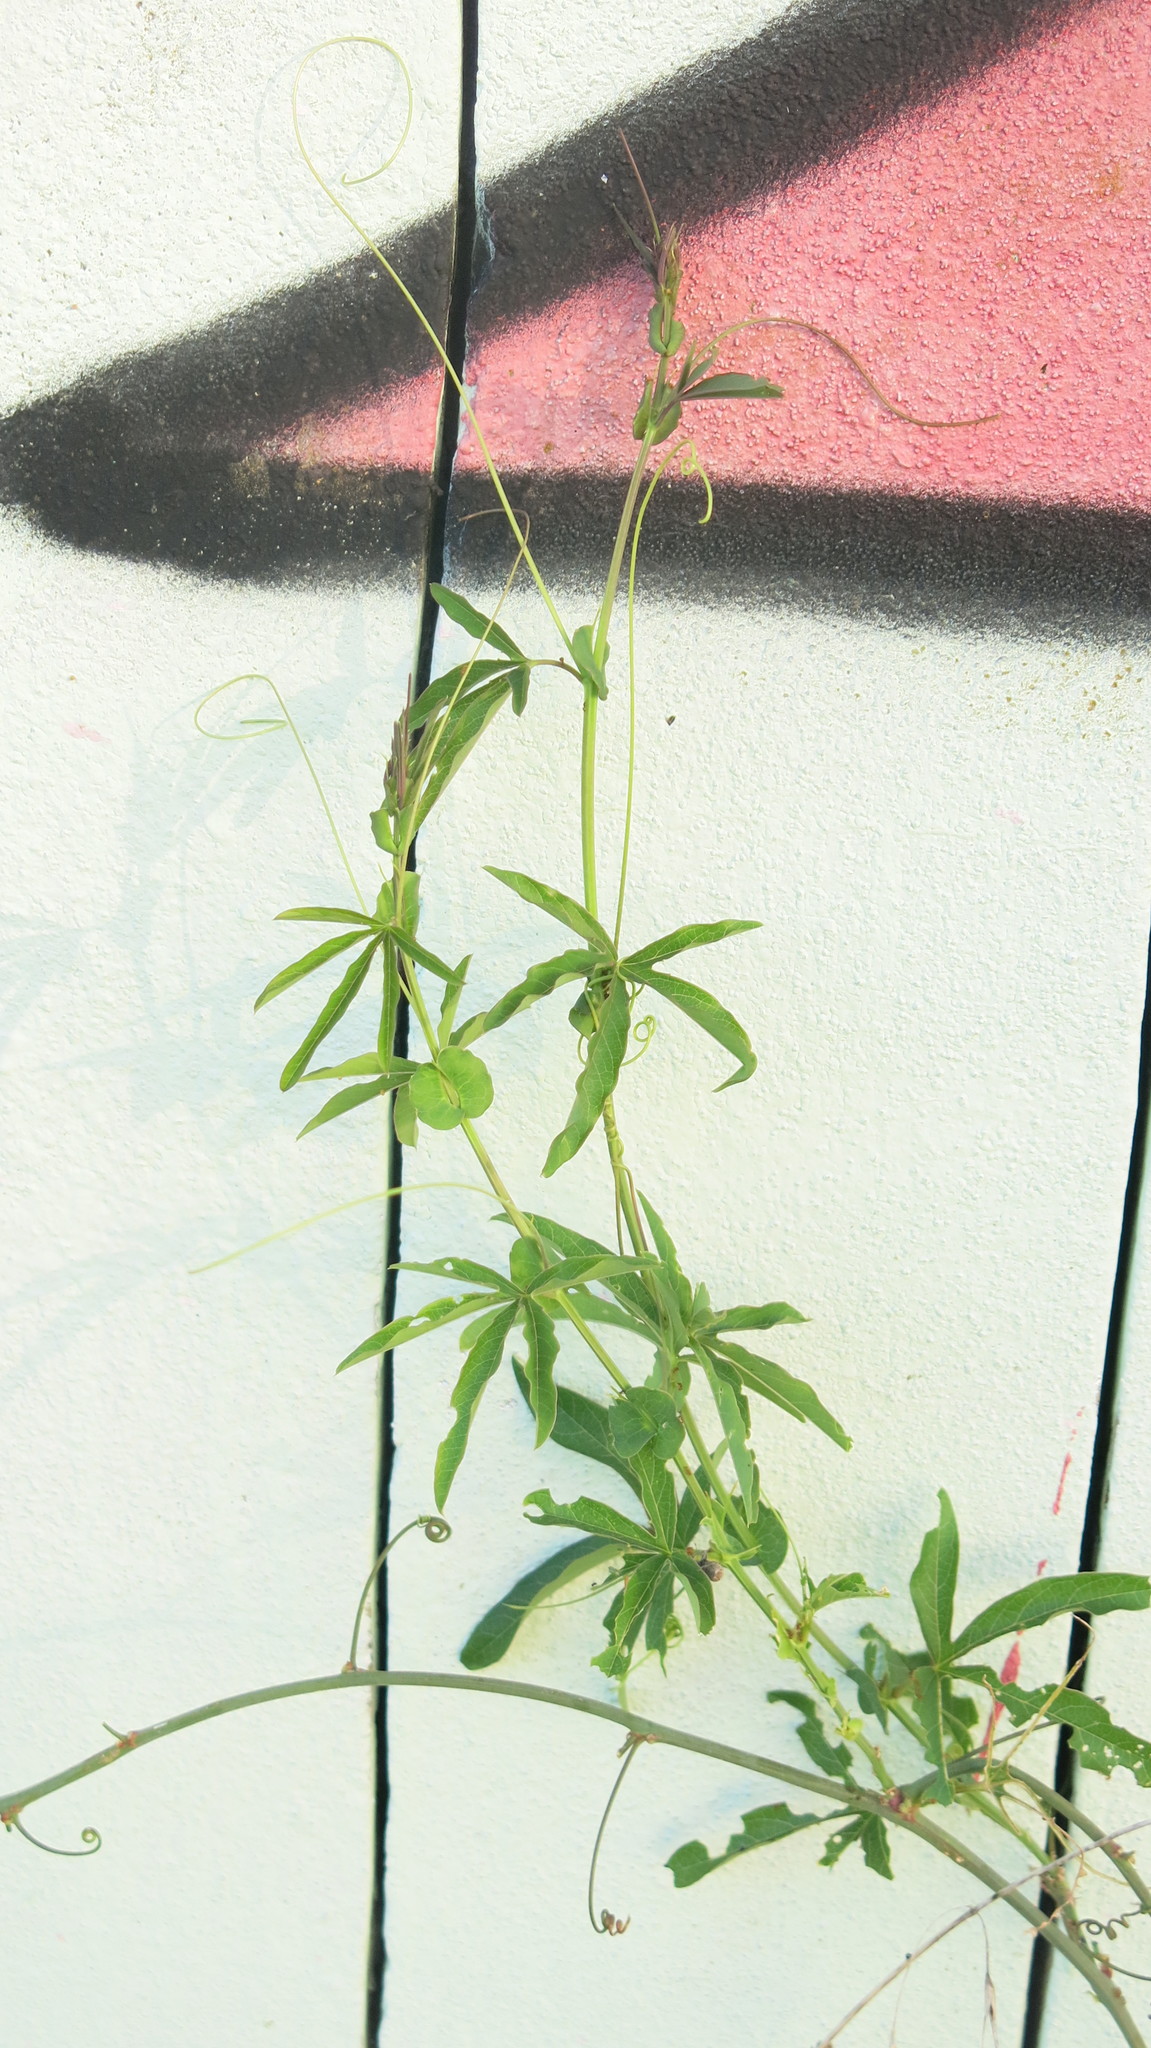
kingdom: Plantae
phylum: Tracheophyta
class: Magnoliopsida
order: Malpighiales
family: Passifloraceae
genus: Passiflora
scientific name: Passiflora caerulea
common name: Blue passionflower
